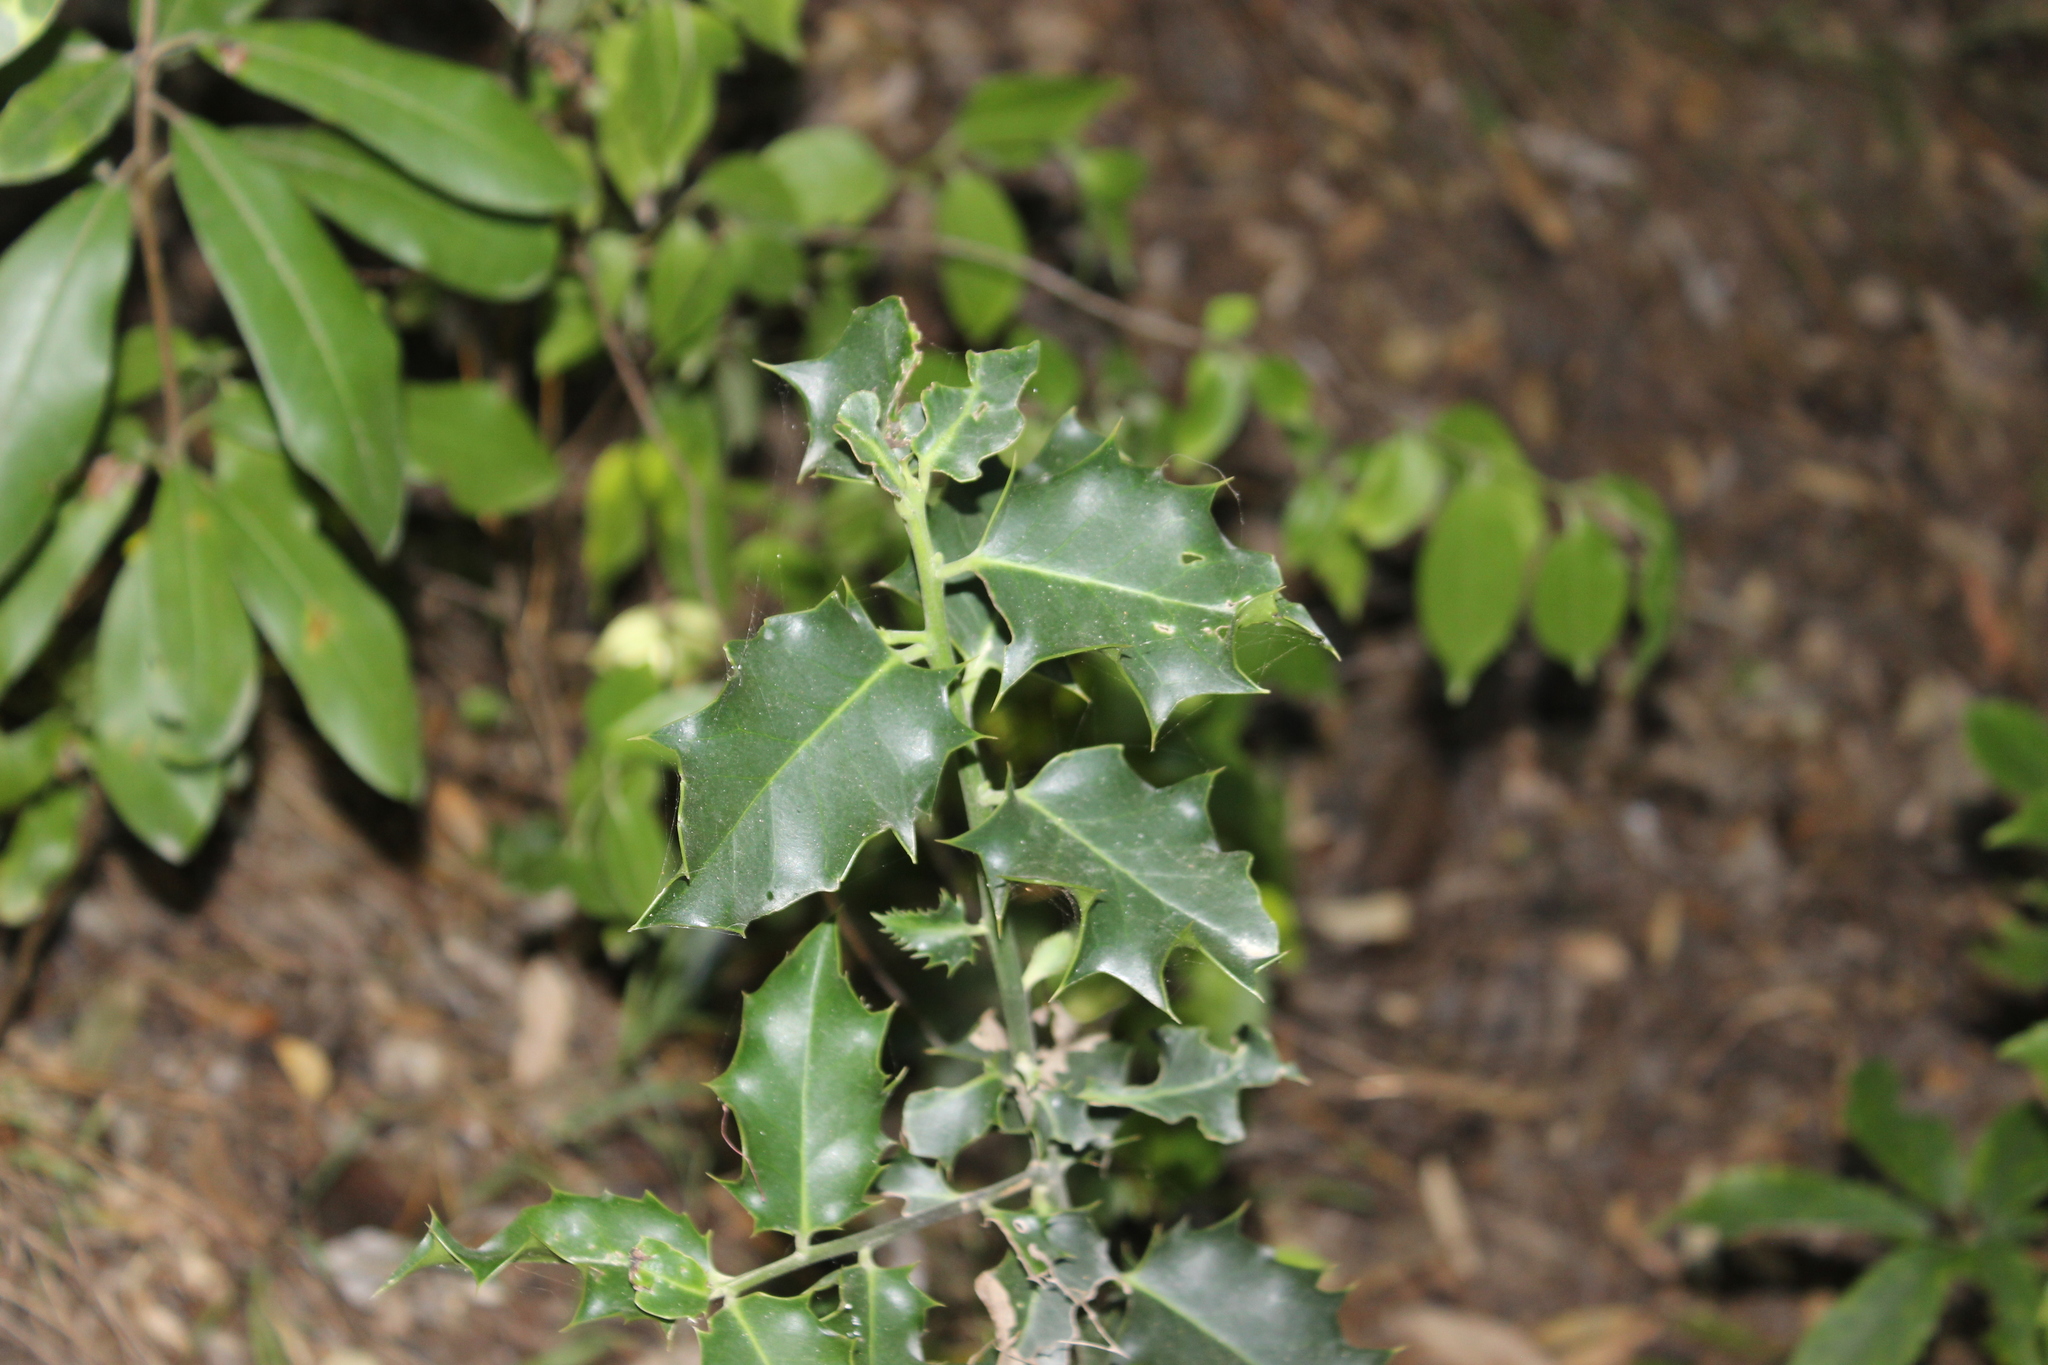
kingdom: Plantae
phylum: Tracheophyta
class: Magnoliopsida
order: Aquifoliales
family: Aquifoliaceae
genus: Ilex
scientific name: Ilex aquifolium
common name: English holly
